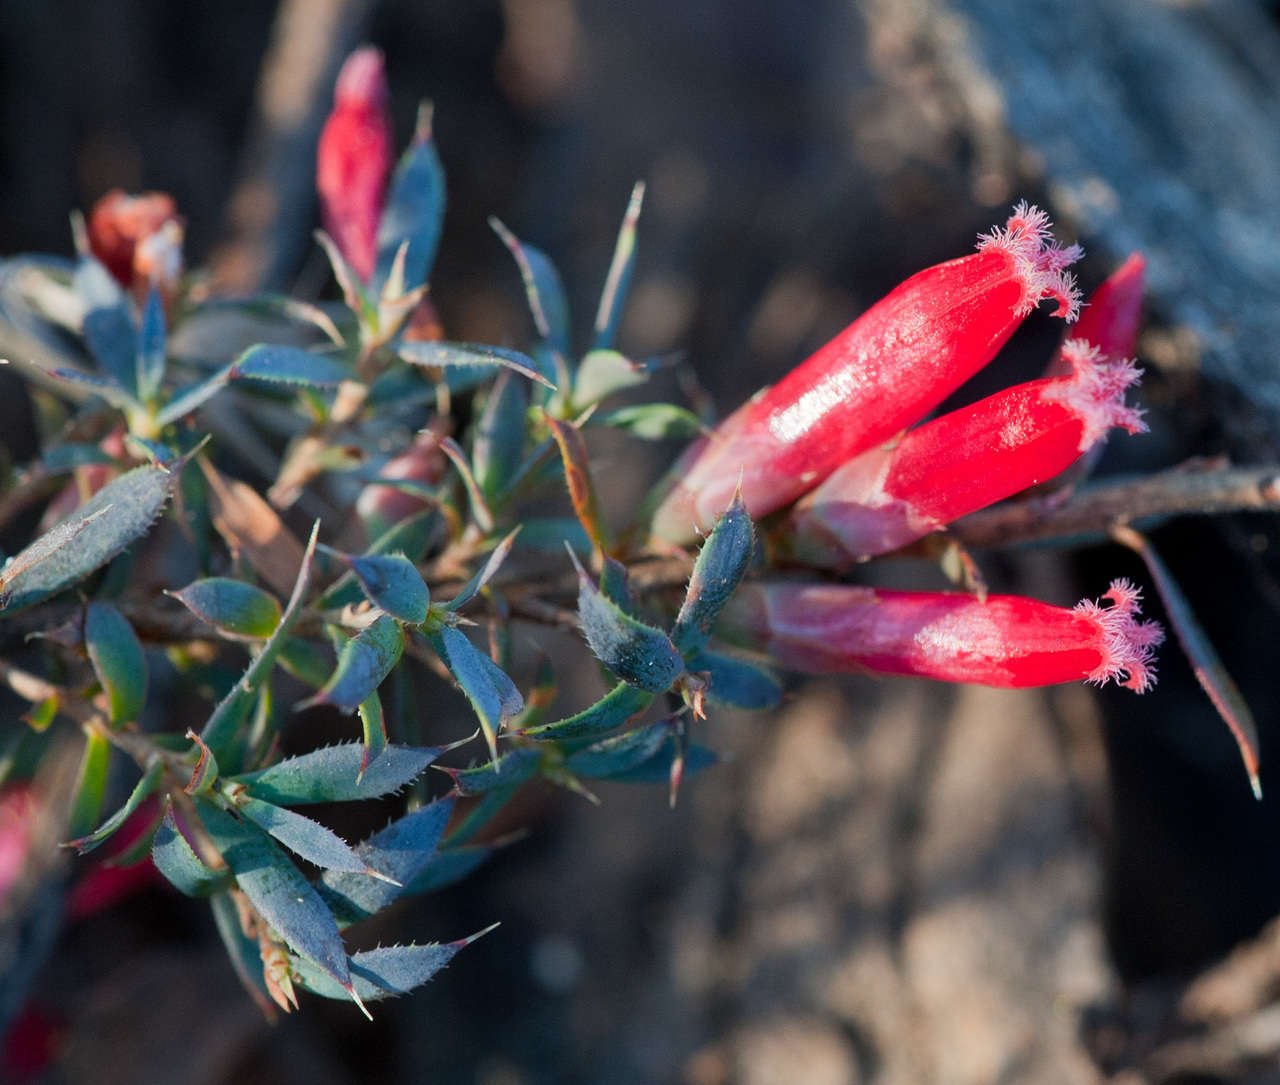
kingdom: Plantae
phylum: Tracheophyta
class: Magnoliopsida
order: Ericales
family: Ericaceae
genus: Styphelia
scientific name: Styphelia humifusa
